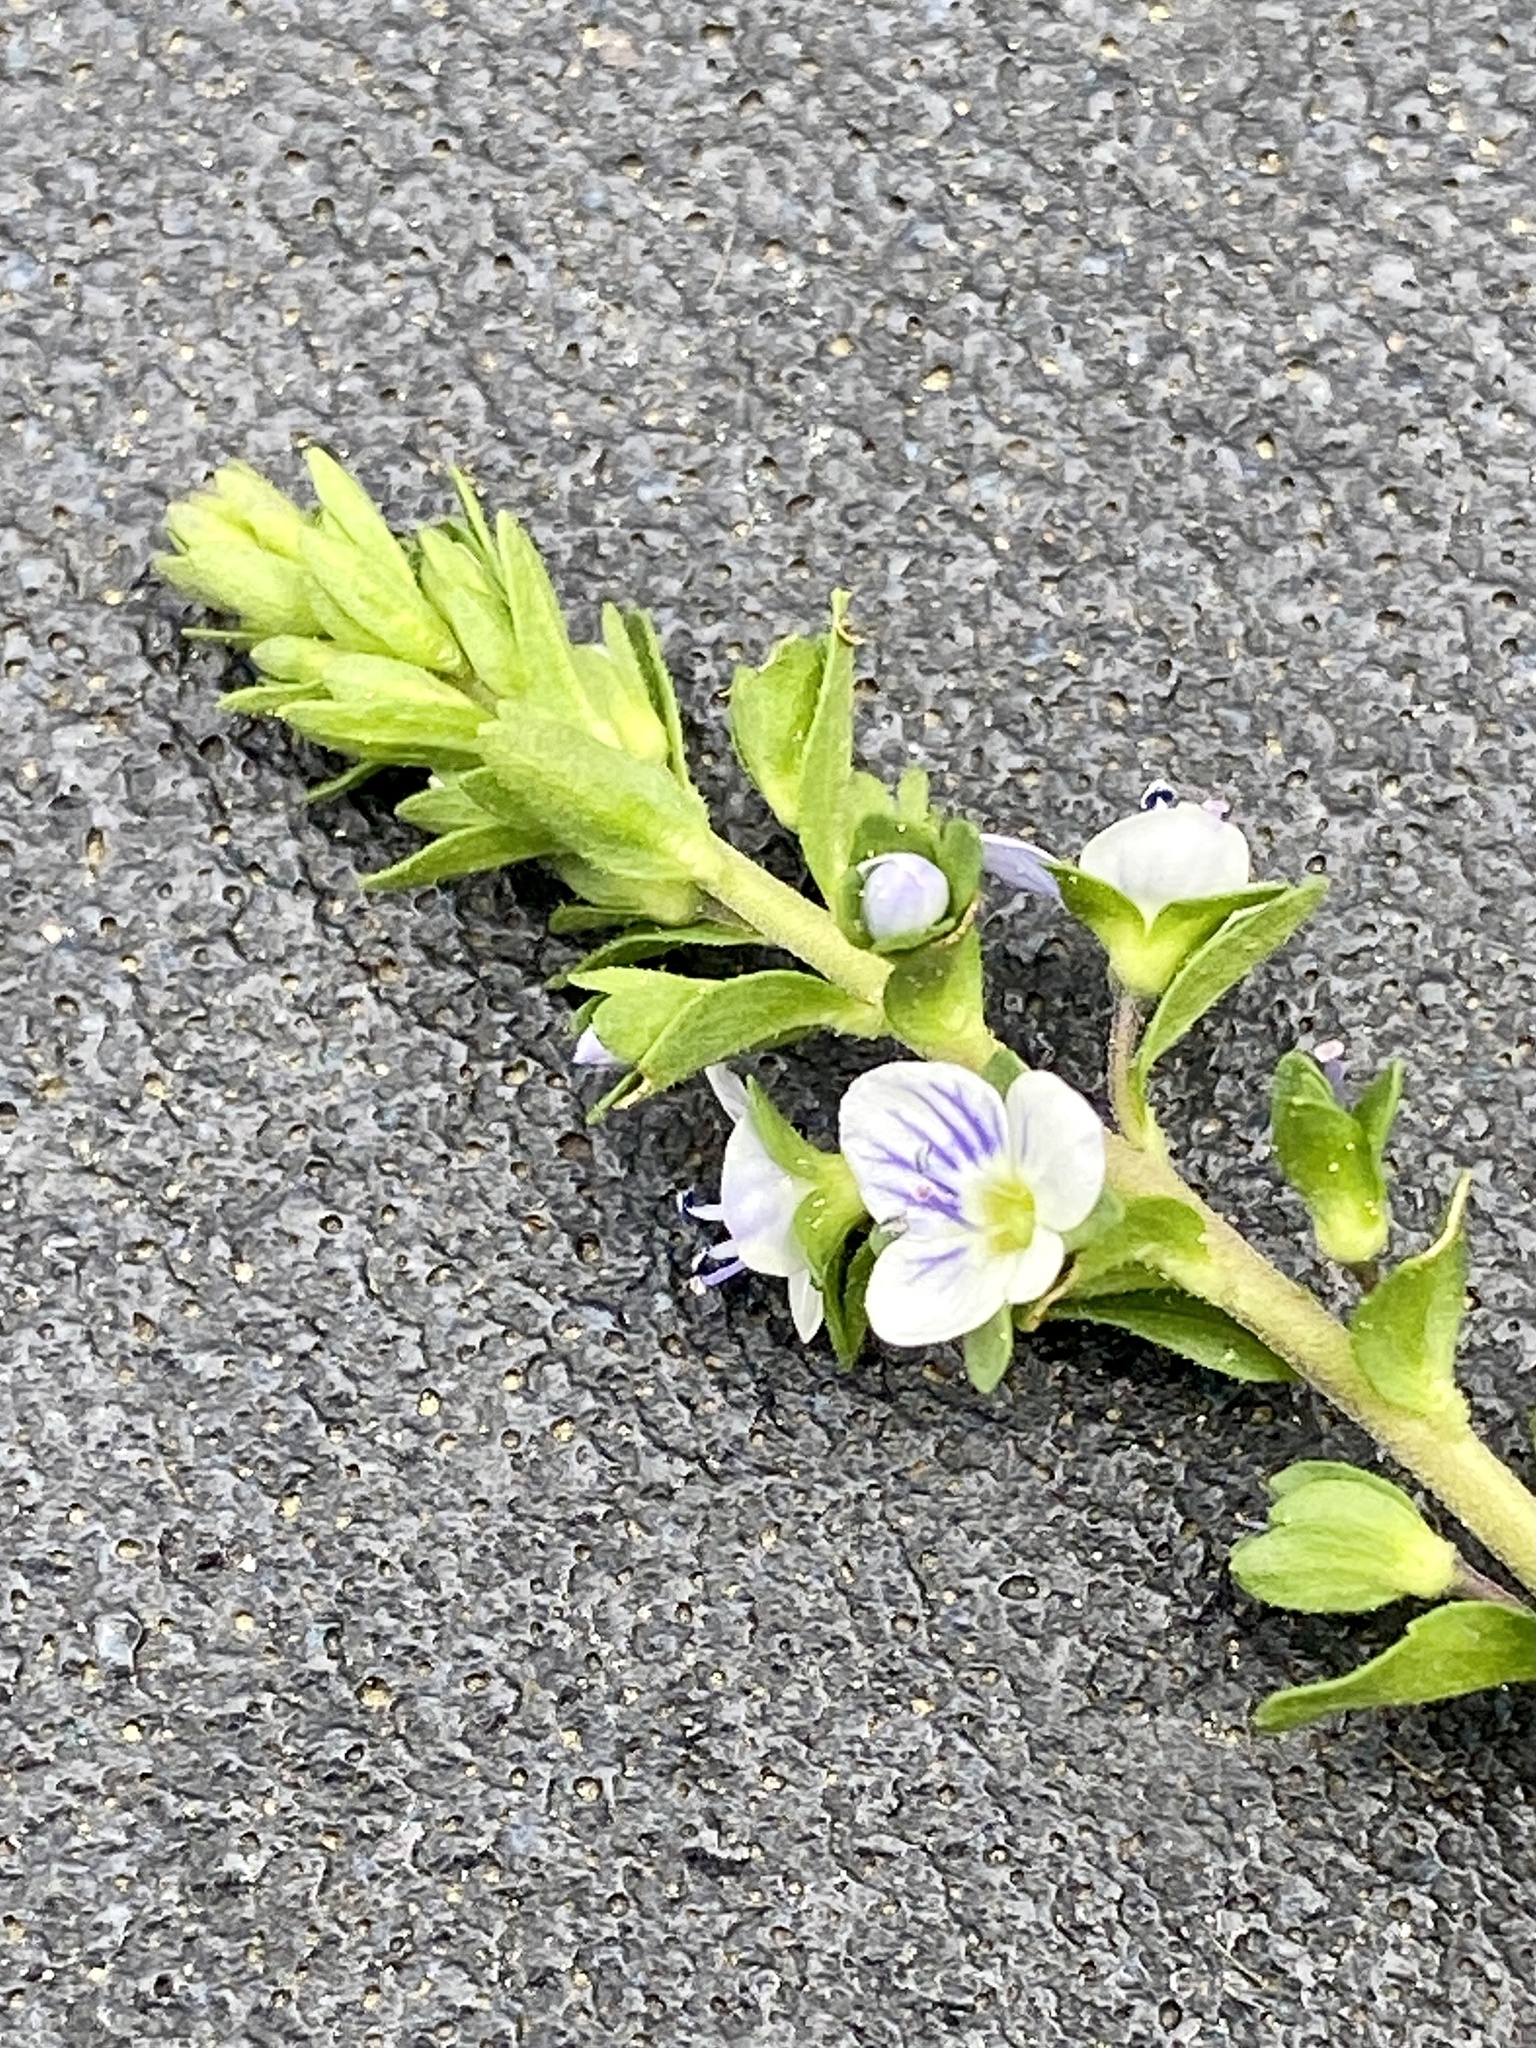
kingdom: Plantae
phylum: Tracheophyta
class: Magnoliopsida
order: Lamiales
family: Plantaginaceae
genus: Veronica
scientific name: Veronica serpyllifolia
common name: Thyme-leaved speedwell
